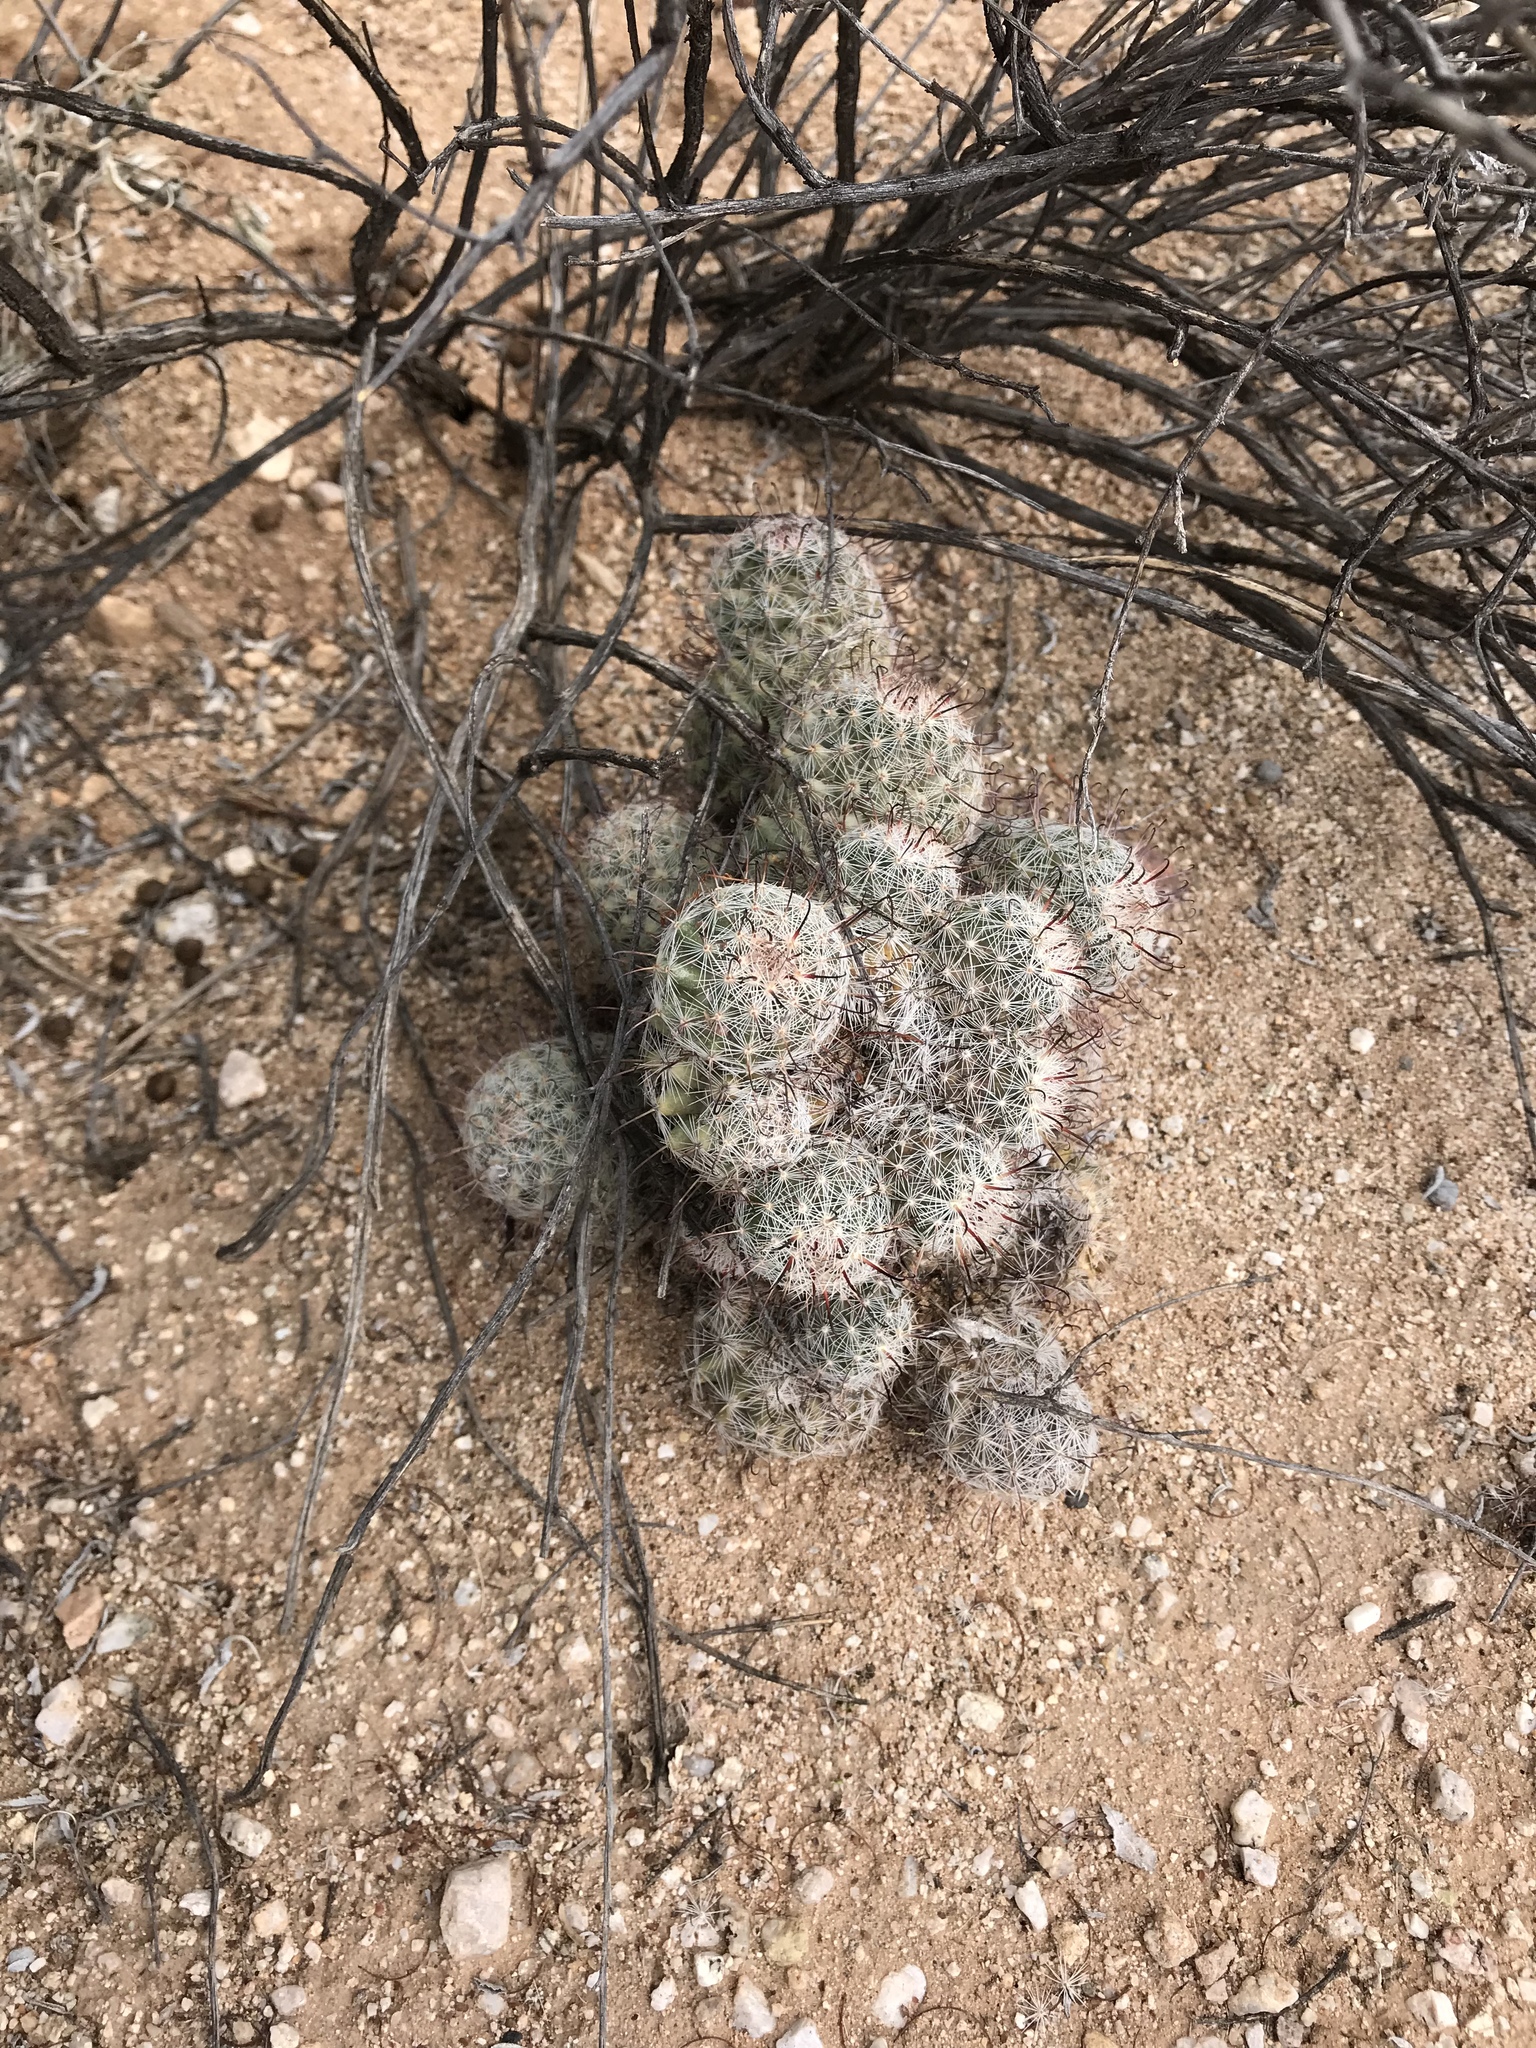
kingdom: Plantae
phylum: Tracheophyta
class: Magnoliopsida
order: Caryophyllales
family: Cactaceae
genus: Cochemiea
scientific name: Cochemiea grahamii
